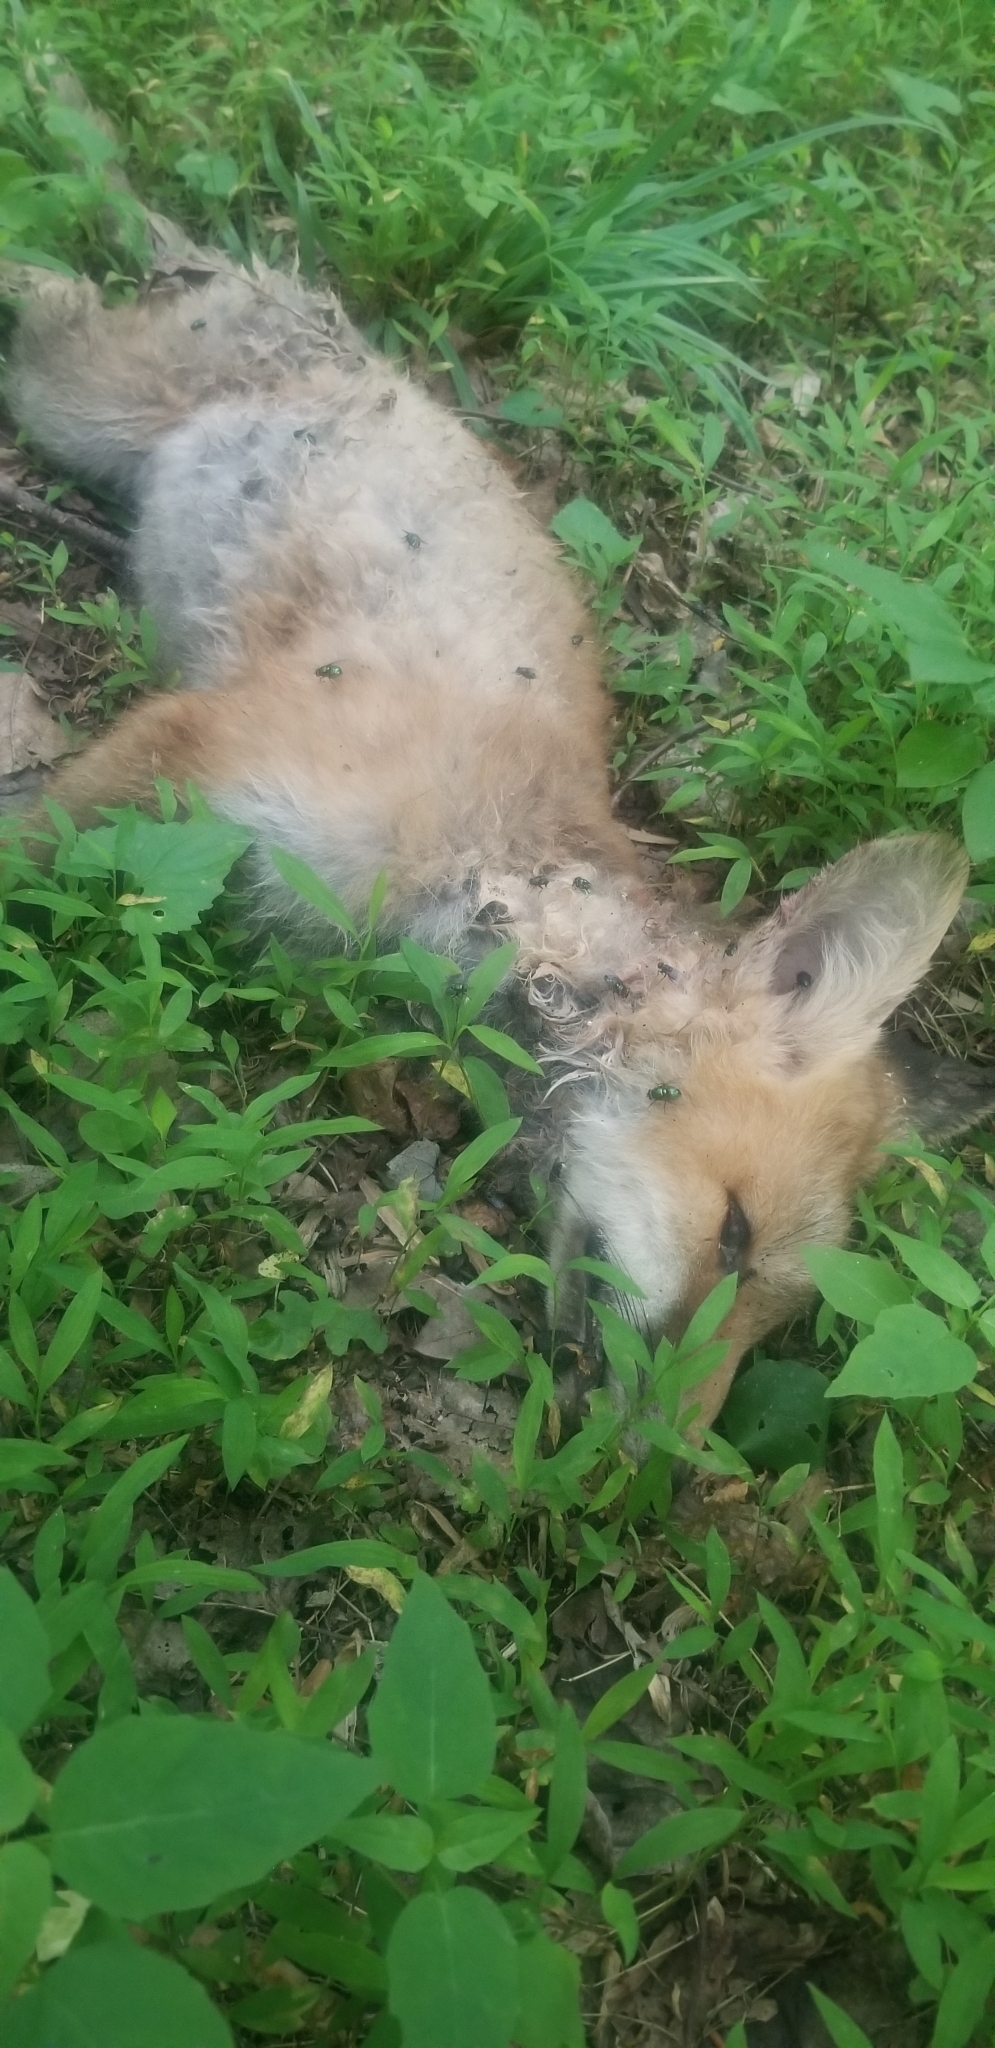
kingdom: Animalia
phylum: Chordata
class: Mammalia
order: Carnivora
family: Canidae
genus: Vulpes
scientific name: Vulpes vulpes
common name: Red fox
